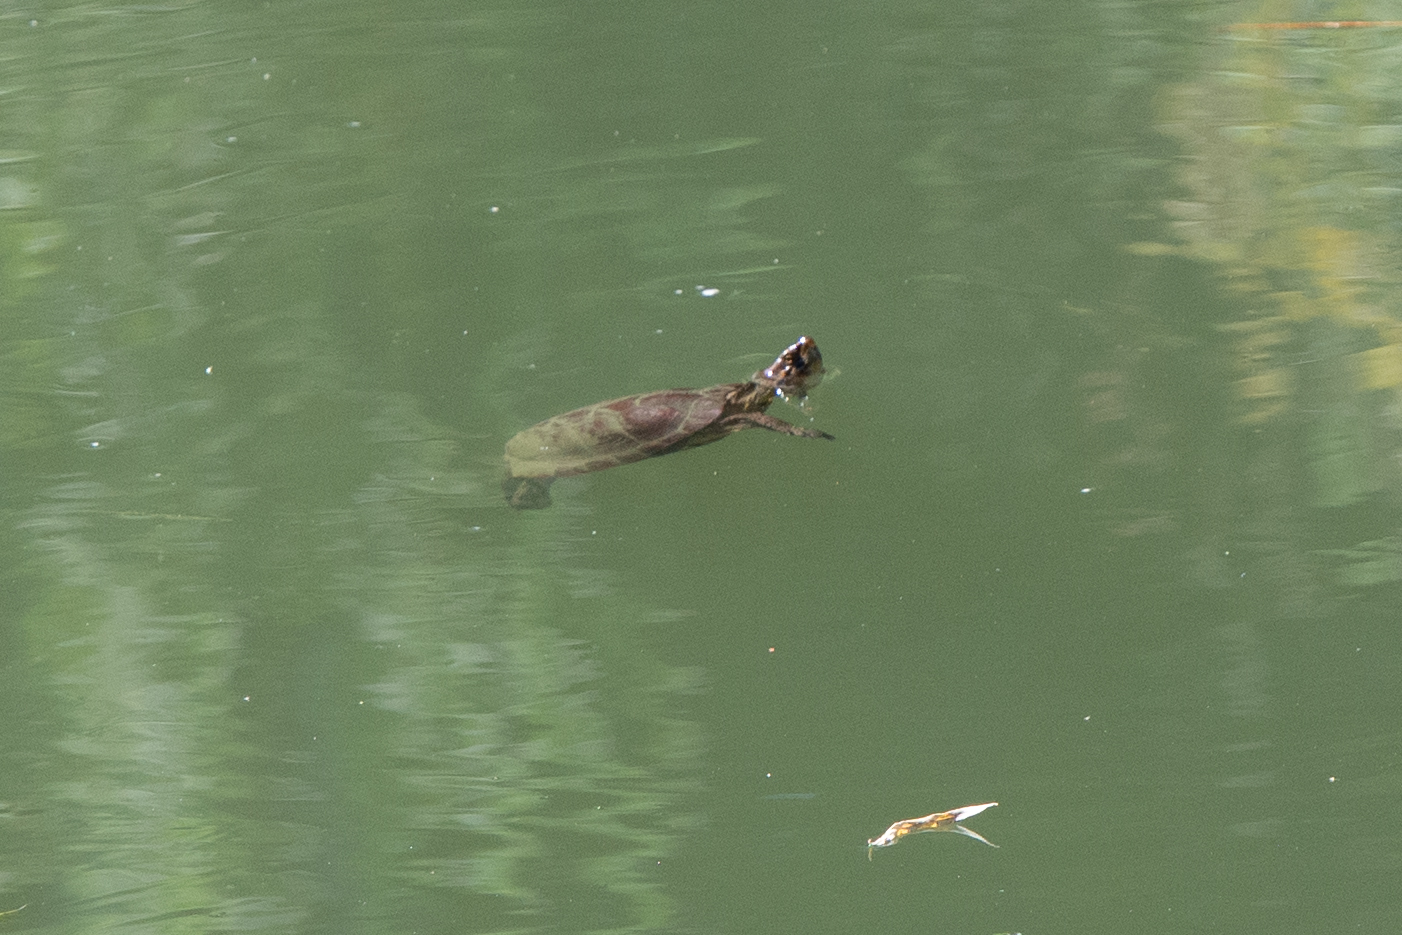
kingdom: Animalia
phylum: Chordata
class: Testudines
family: Emydidae
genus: Actinemys
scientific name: Actinemys marmorata
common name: Western pond turtle
